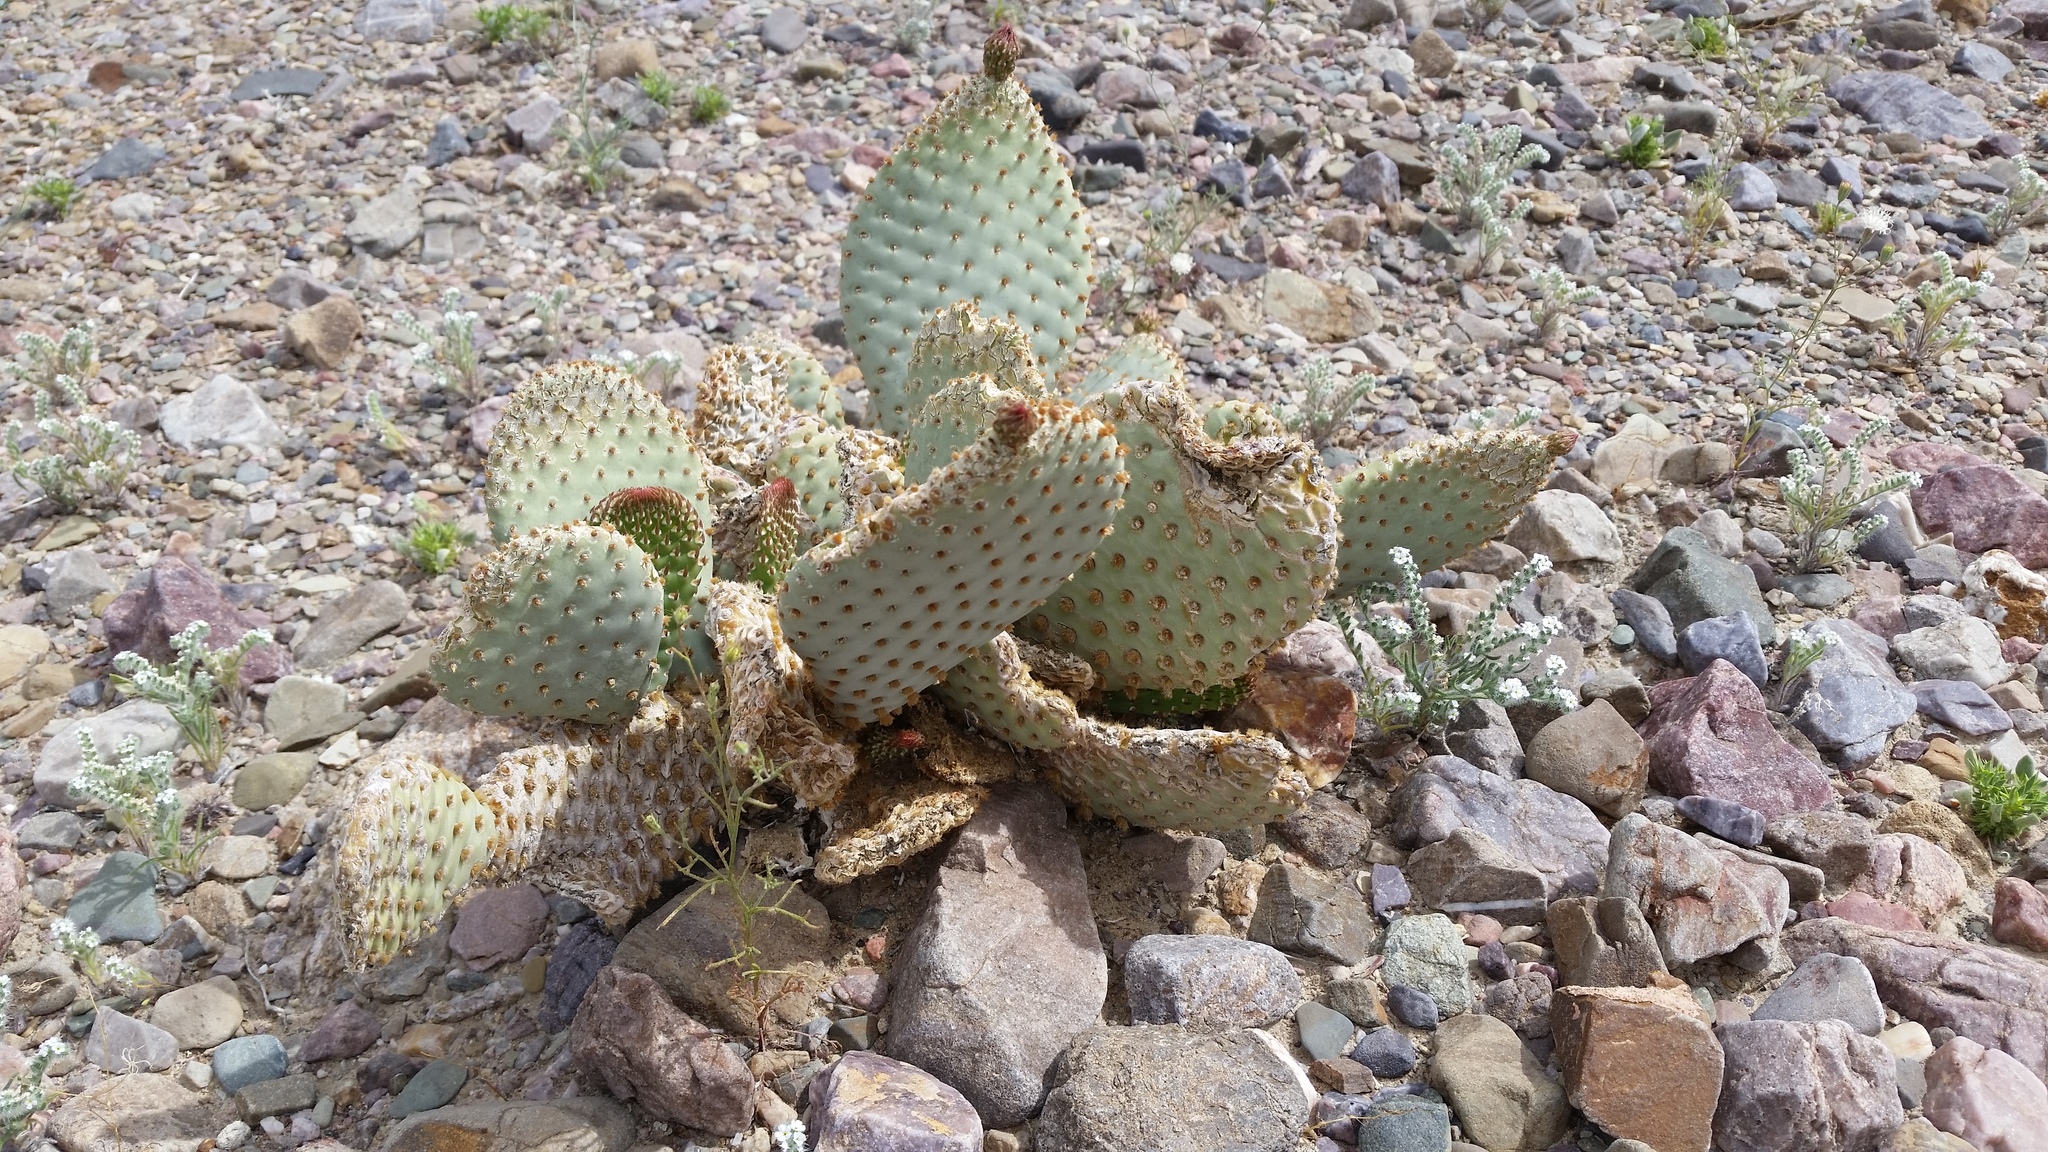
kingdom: Plantae
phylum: Tracheophyta
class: Magnoliopsida
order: Caryophyllales
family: Cactaceae
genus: Opuntia
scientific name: Opuntia basilaris
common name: Beavertail prickly-pear
